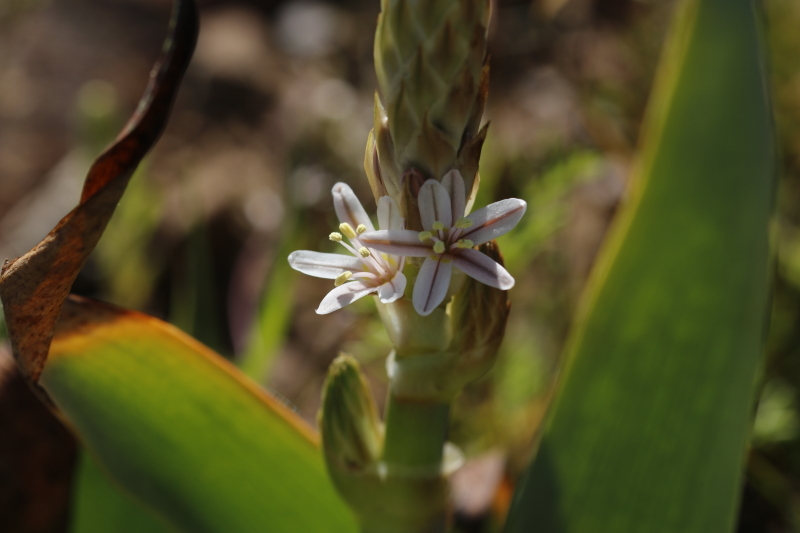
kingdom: Plantae
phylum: Tracheophyta
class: Liliopsida
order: Asparagales
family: Asphodelaceae
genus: Trachyandra
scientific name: Trachyandra falcata
